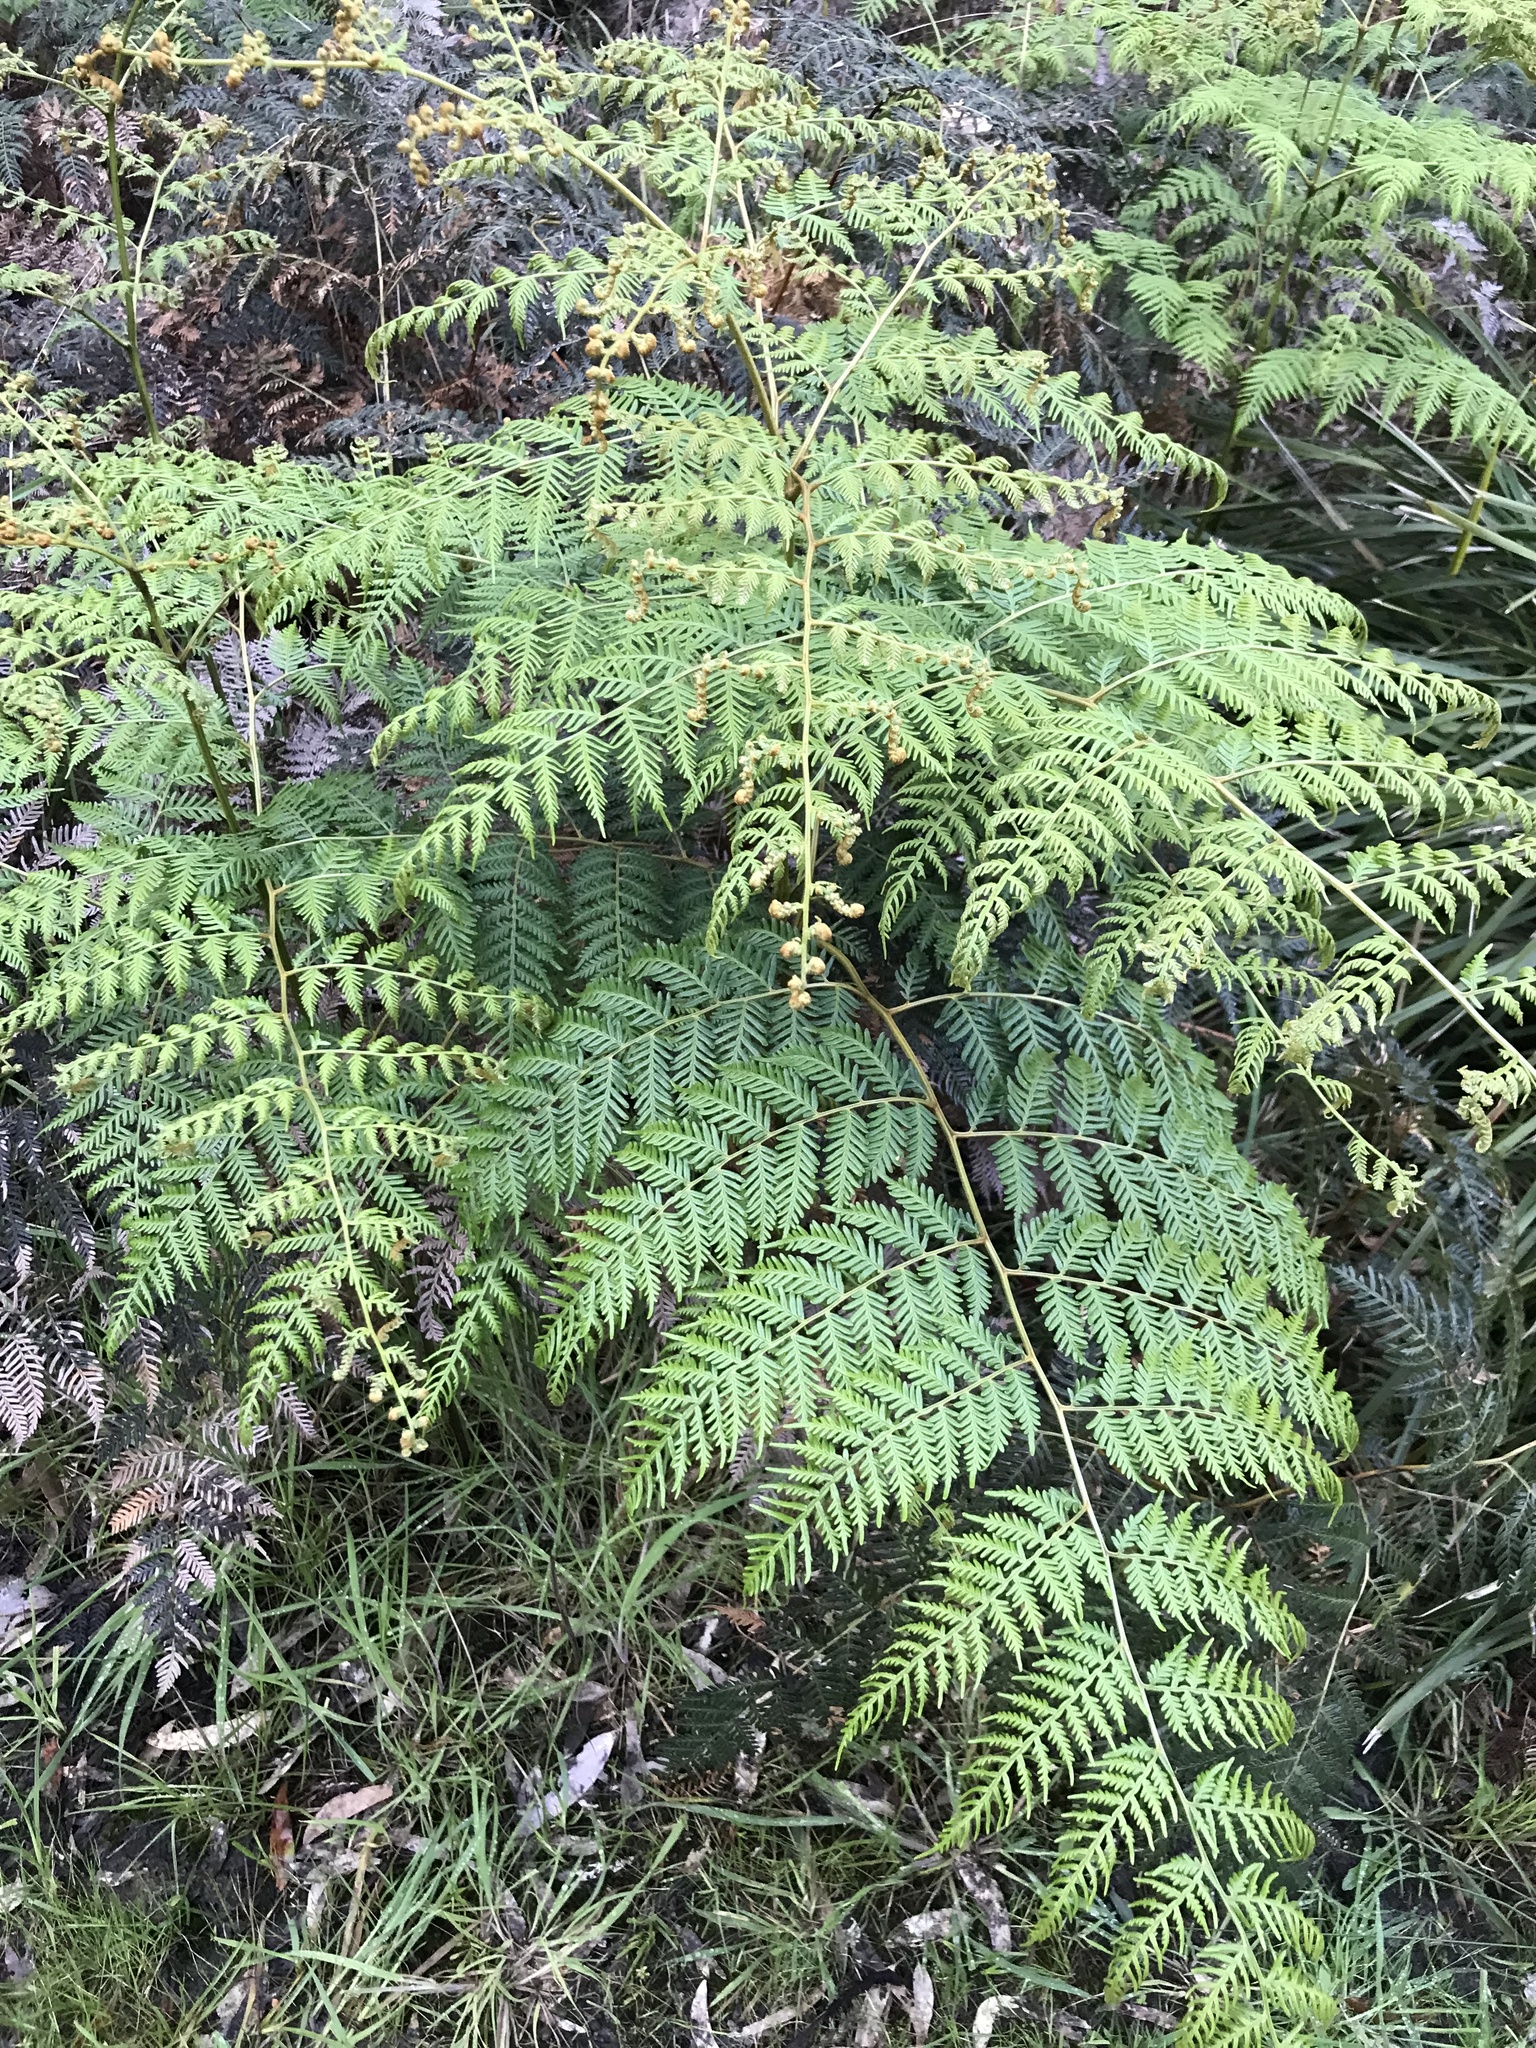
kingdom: Plantae
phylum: Tracheophyta
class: Polypodiopsida
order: Polypodiales
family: Dennstaedtiaceae
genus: Pteridium
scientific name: Pteridium esculentum
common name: Bracken fern
